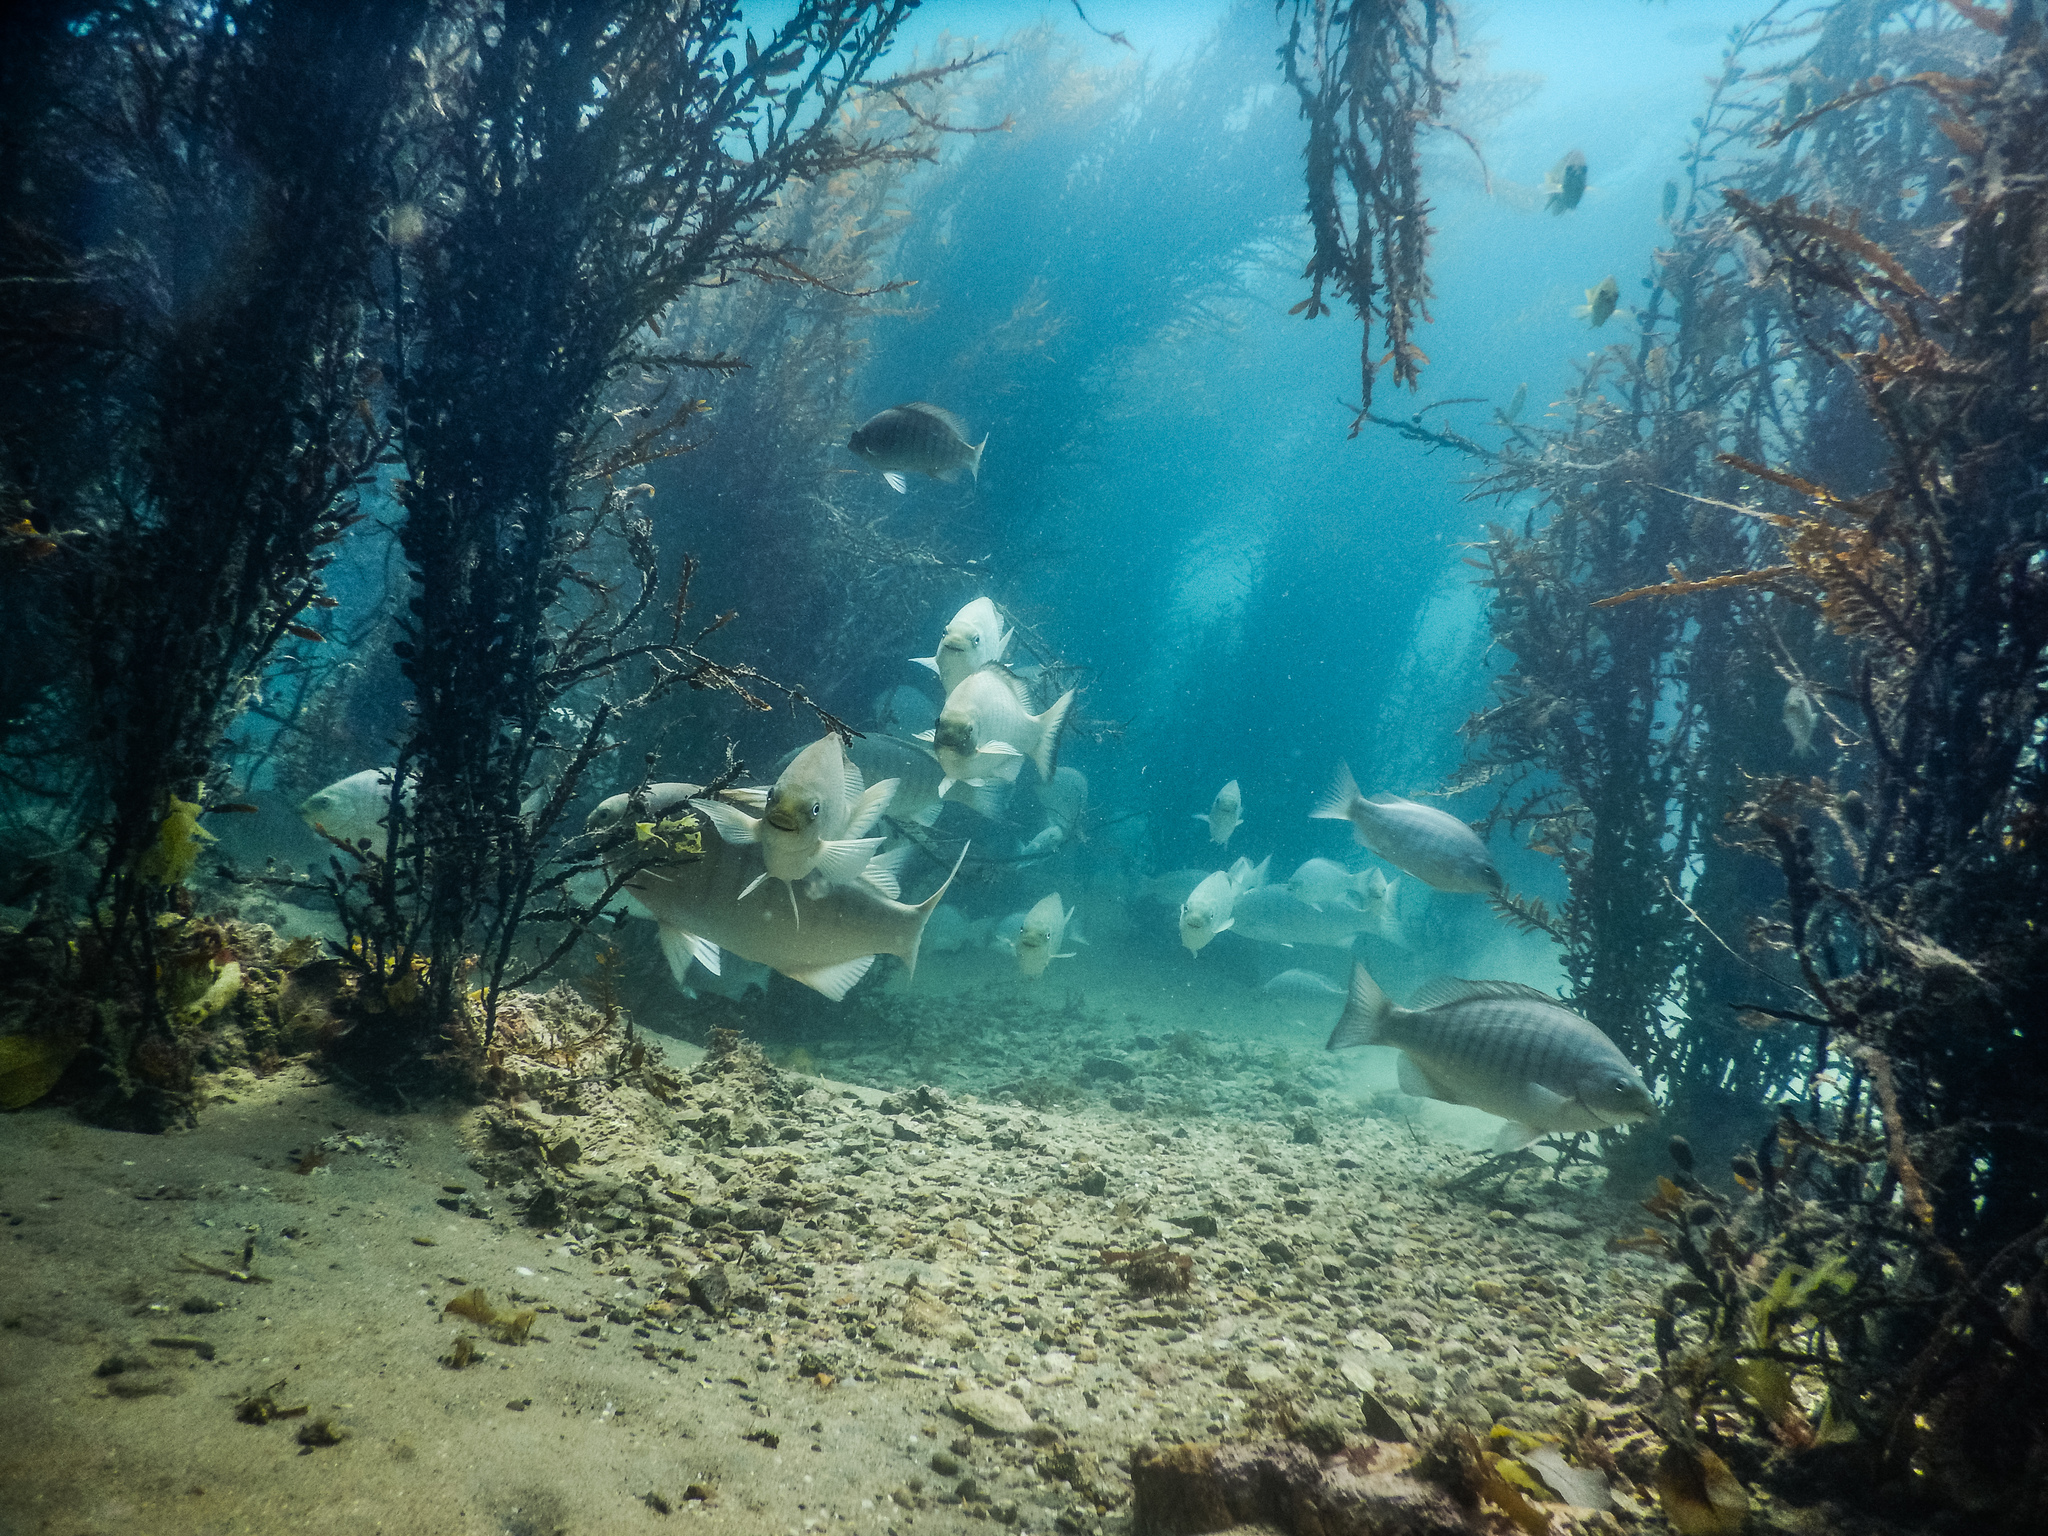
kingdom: Animalia
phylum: Chordata
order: Perciformes
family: Kyphosidae
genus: Girella
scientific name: Girella tricuspidata
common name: Parore
